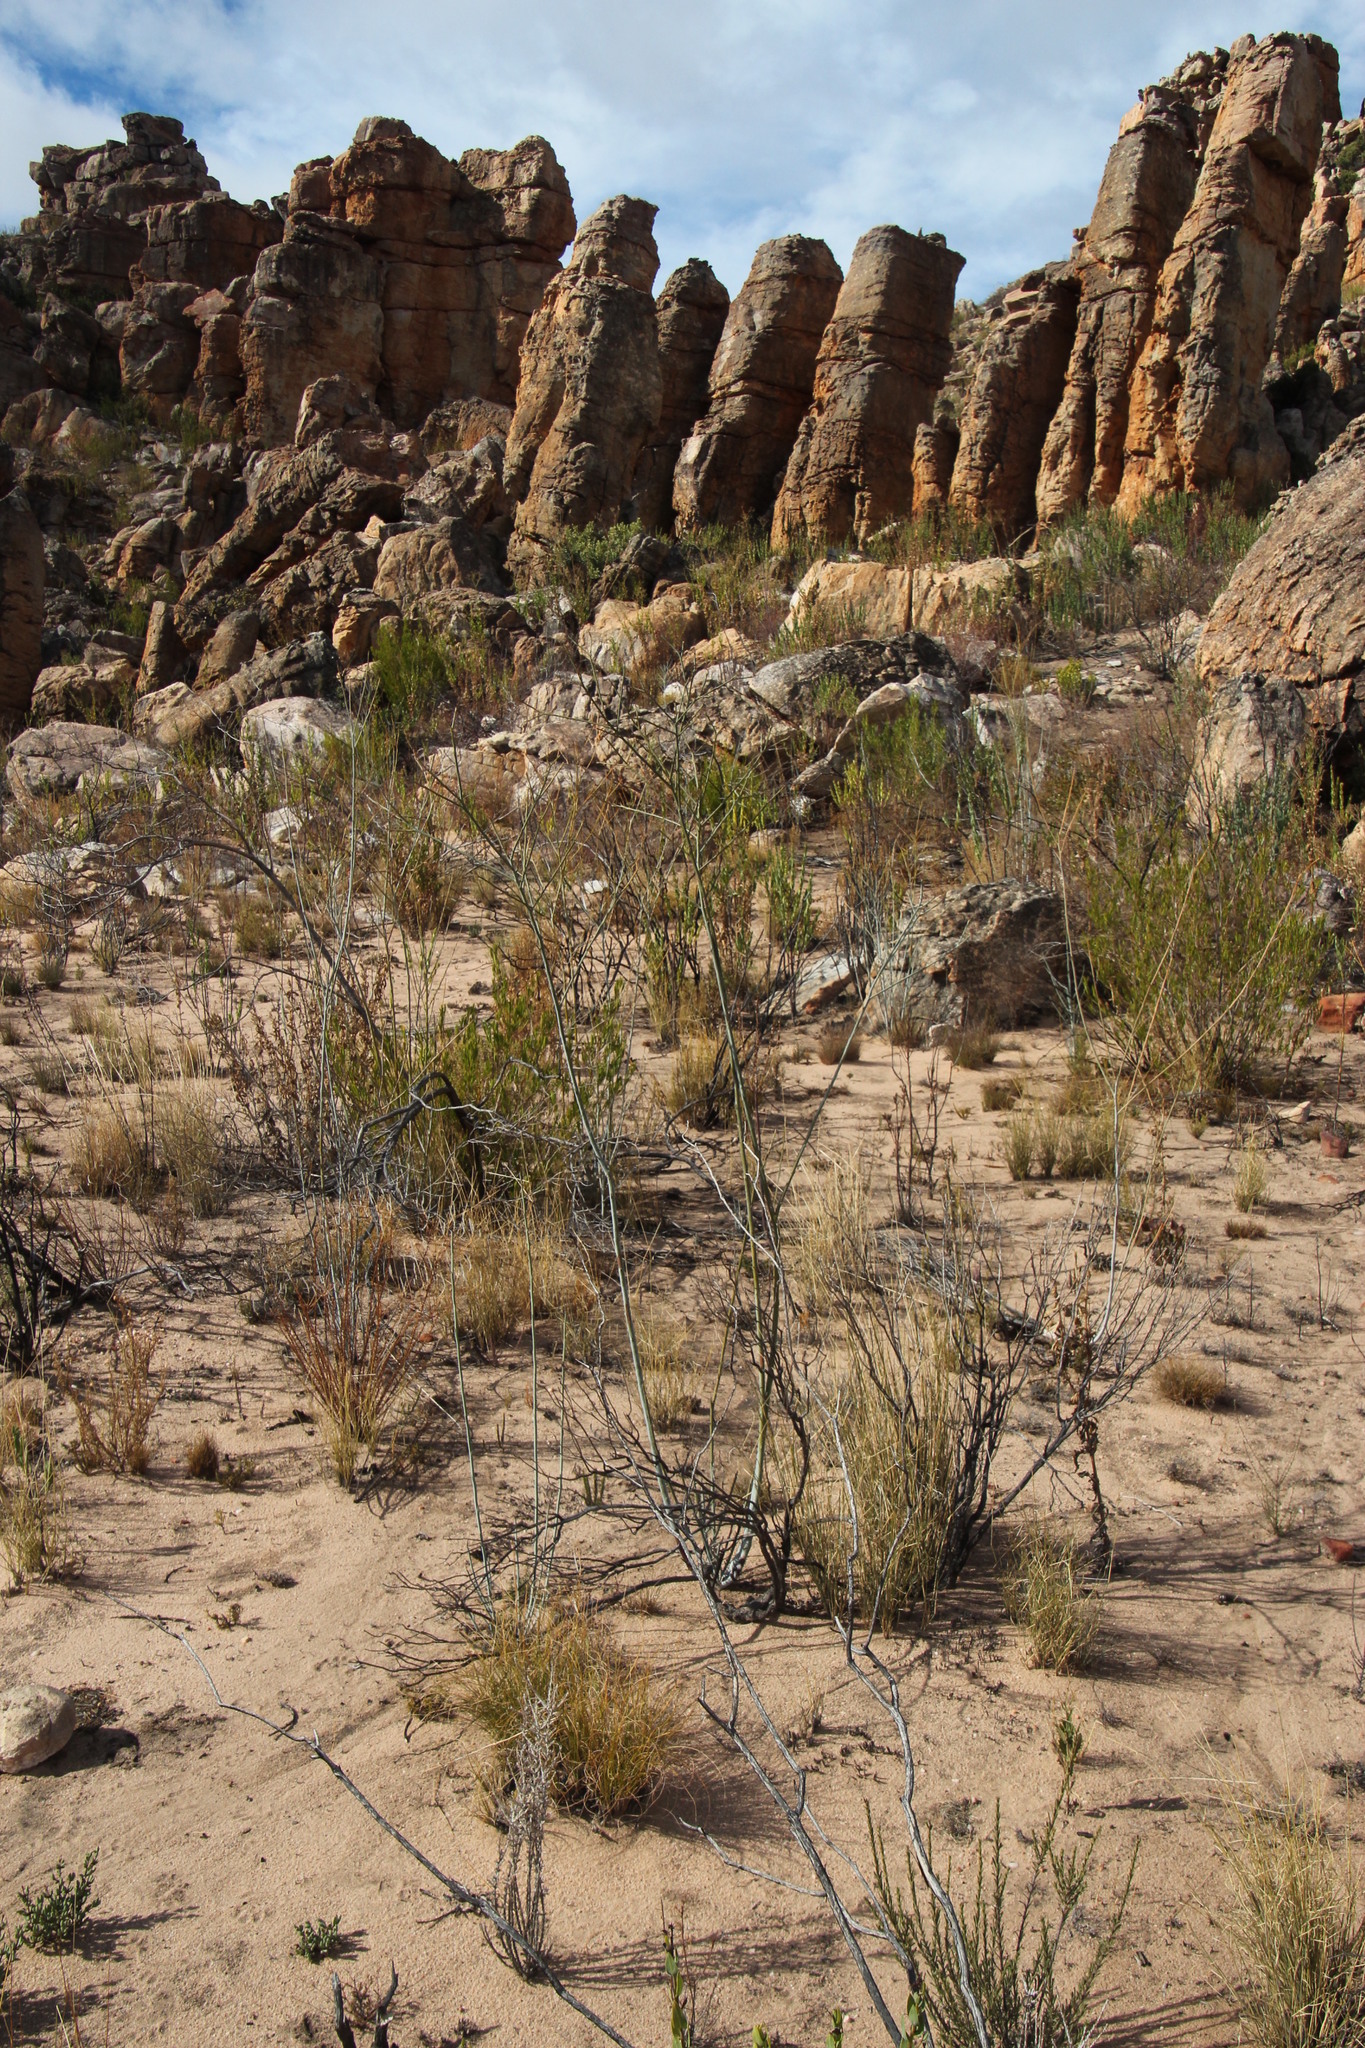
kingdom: Plantae
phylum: Tracheophyta
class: Magnoliopsida
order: Santalales
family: Thesiaceae
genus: Thesium
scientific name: Thesium strictum
